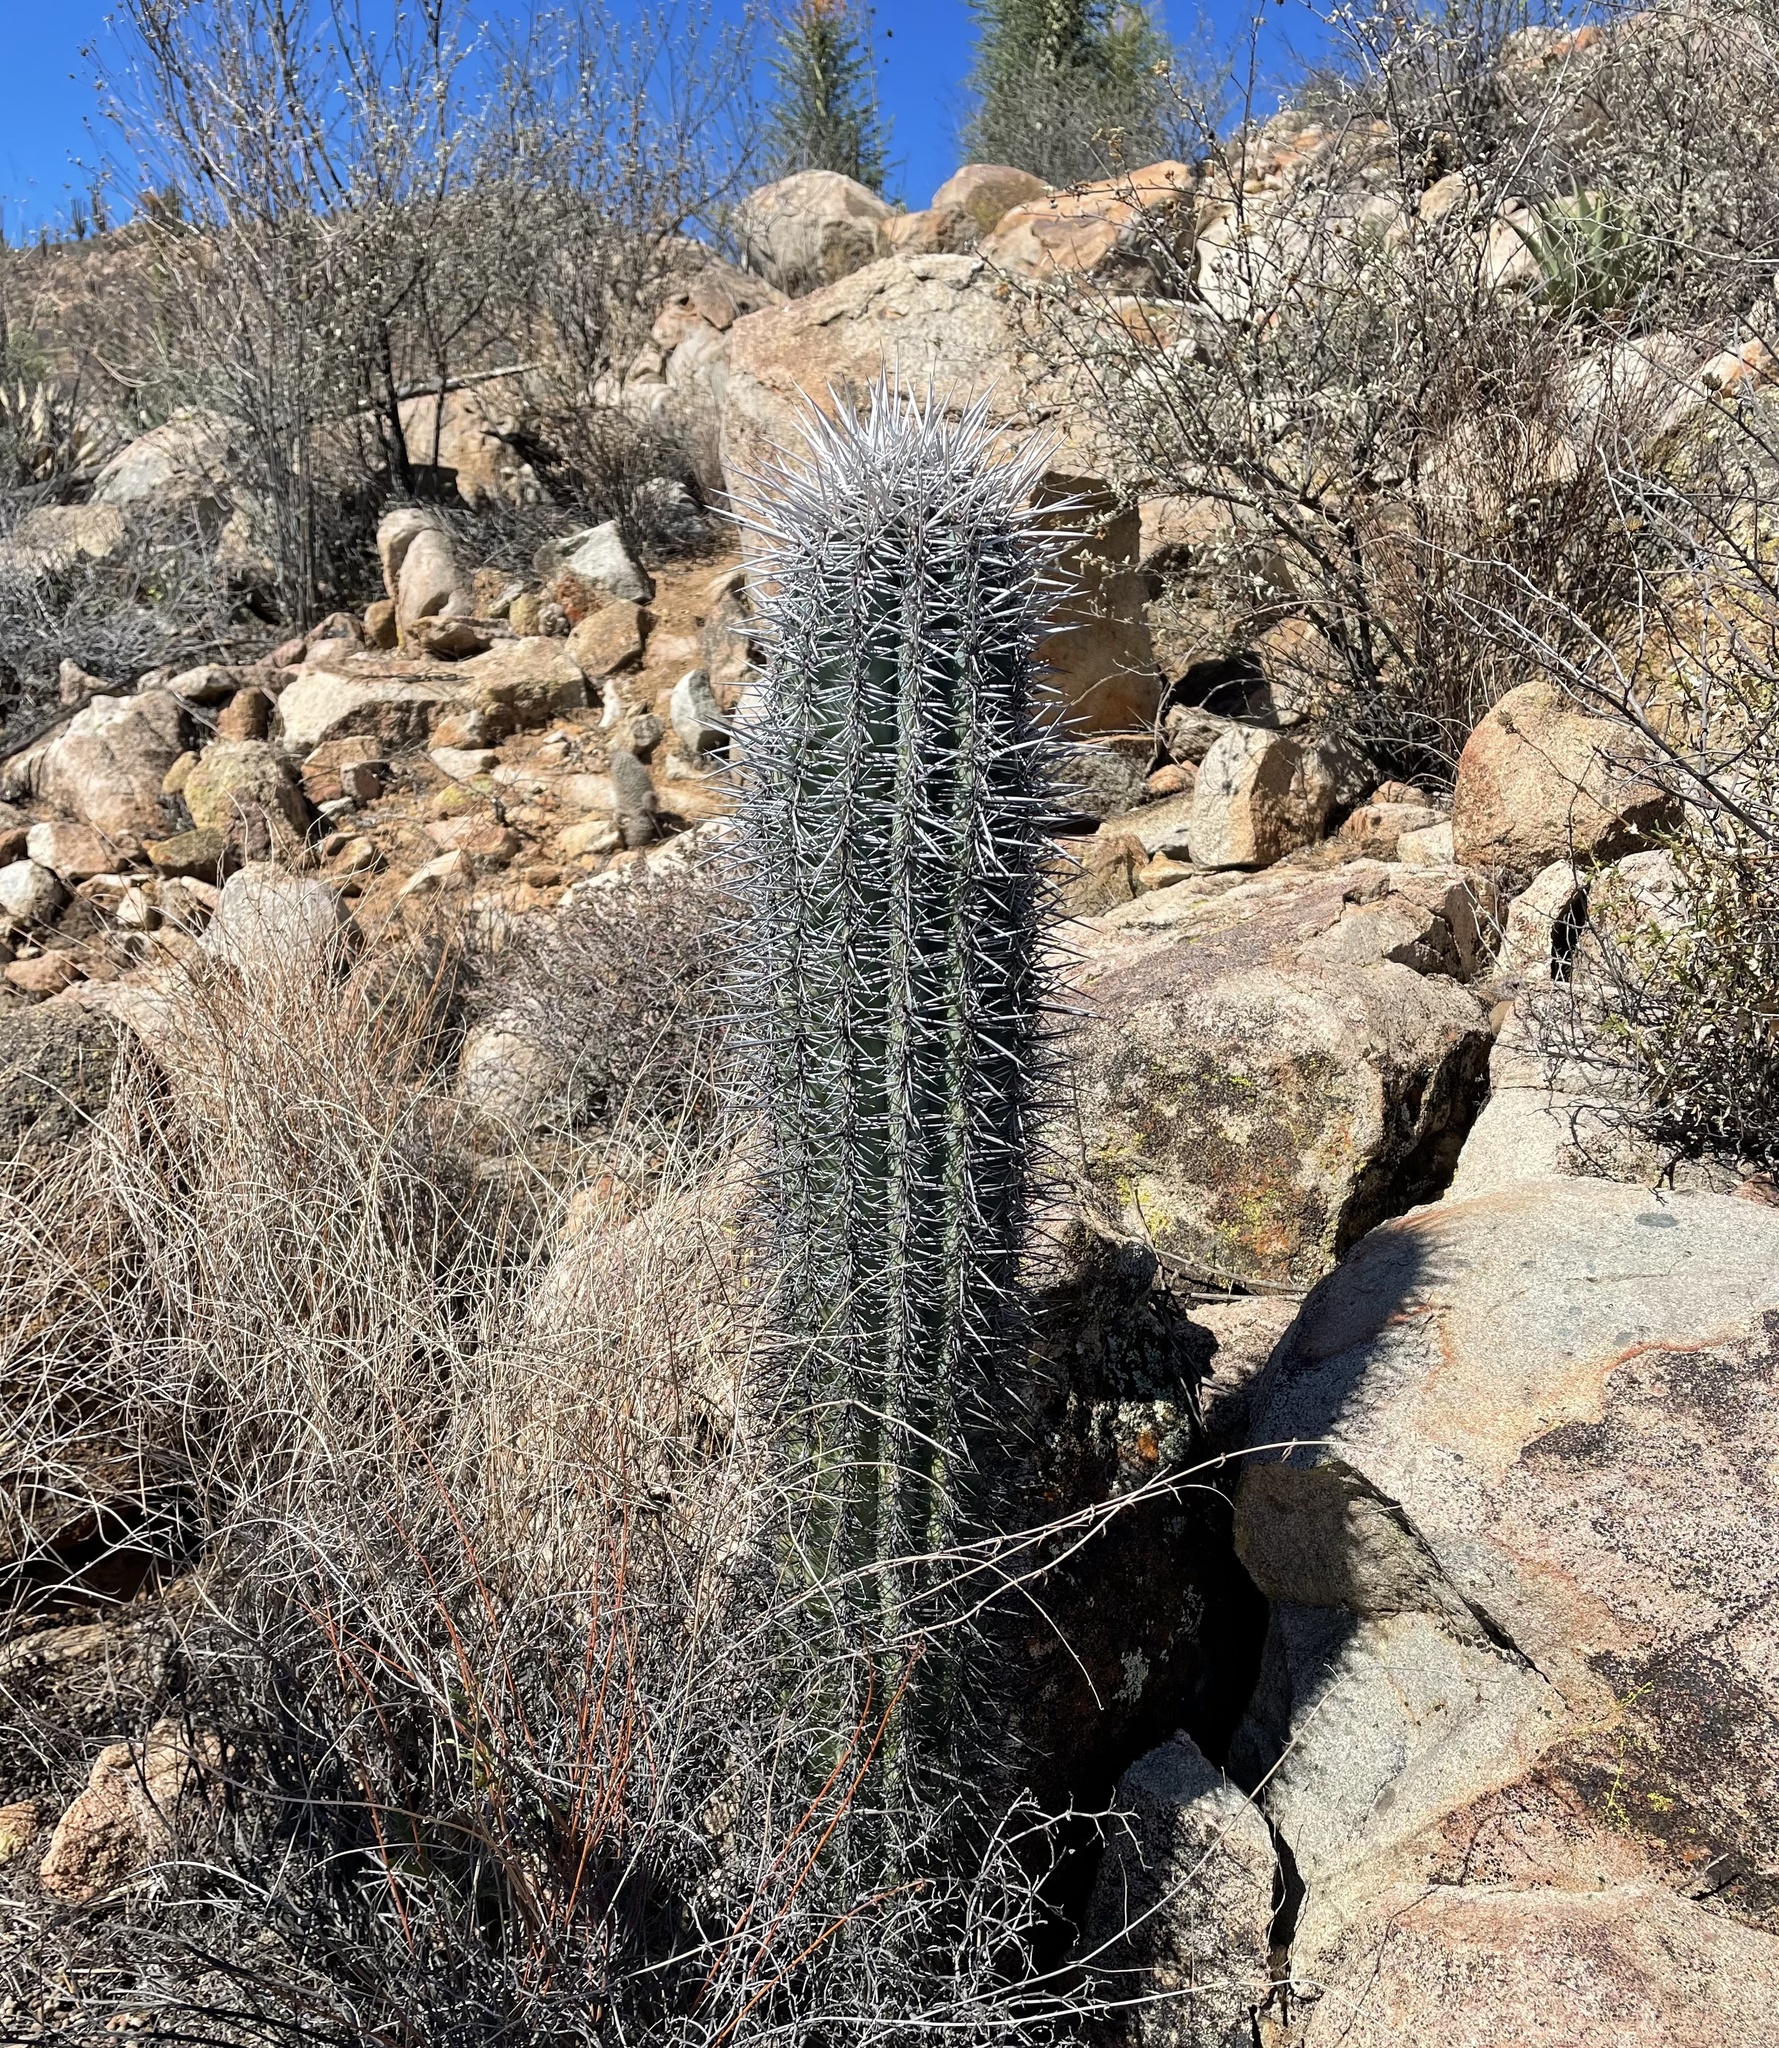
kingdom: Plantae
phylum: Tracheophyta
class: Magnoliopsida
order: Caryophyllales
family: Cactaceae
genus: Pachycereus
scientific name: Pachycereus pringlei
